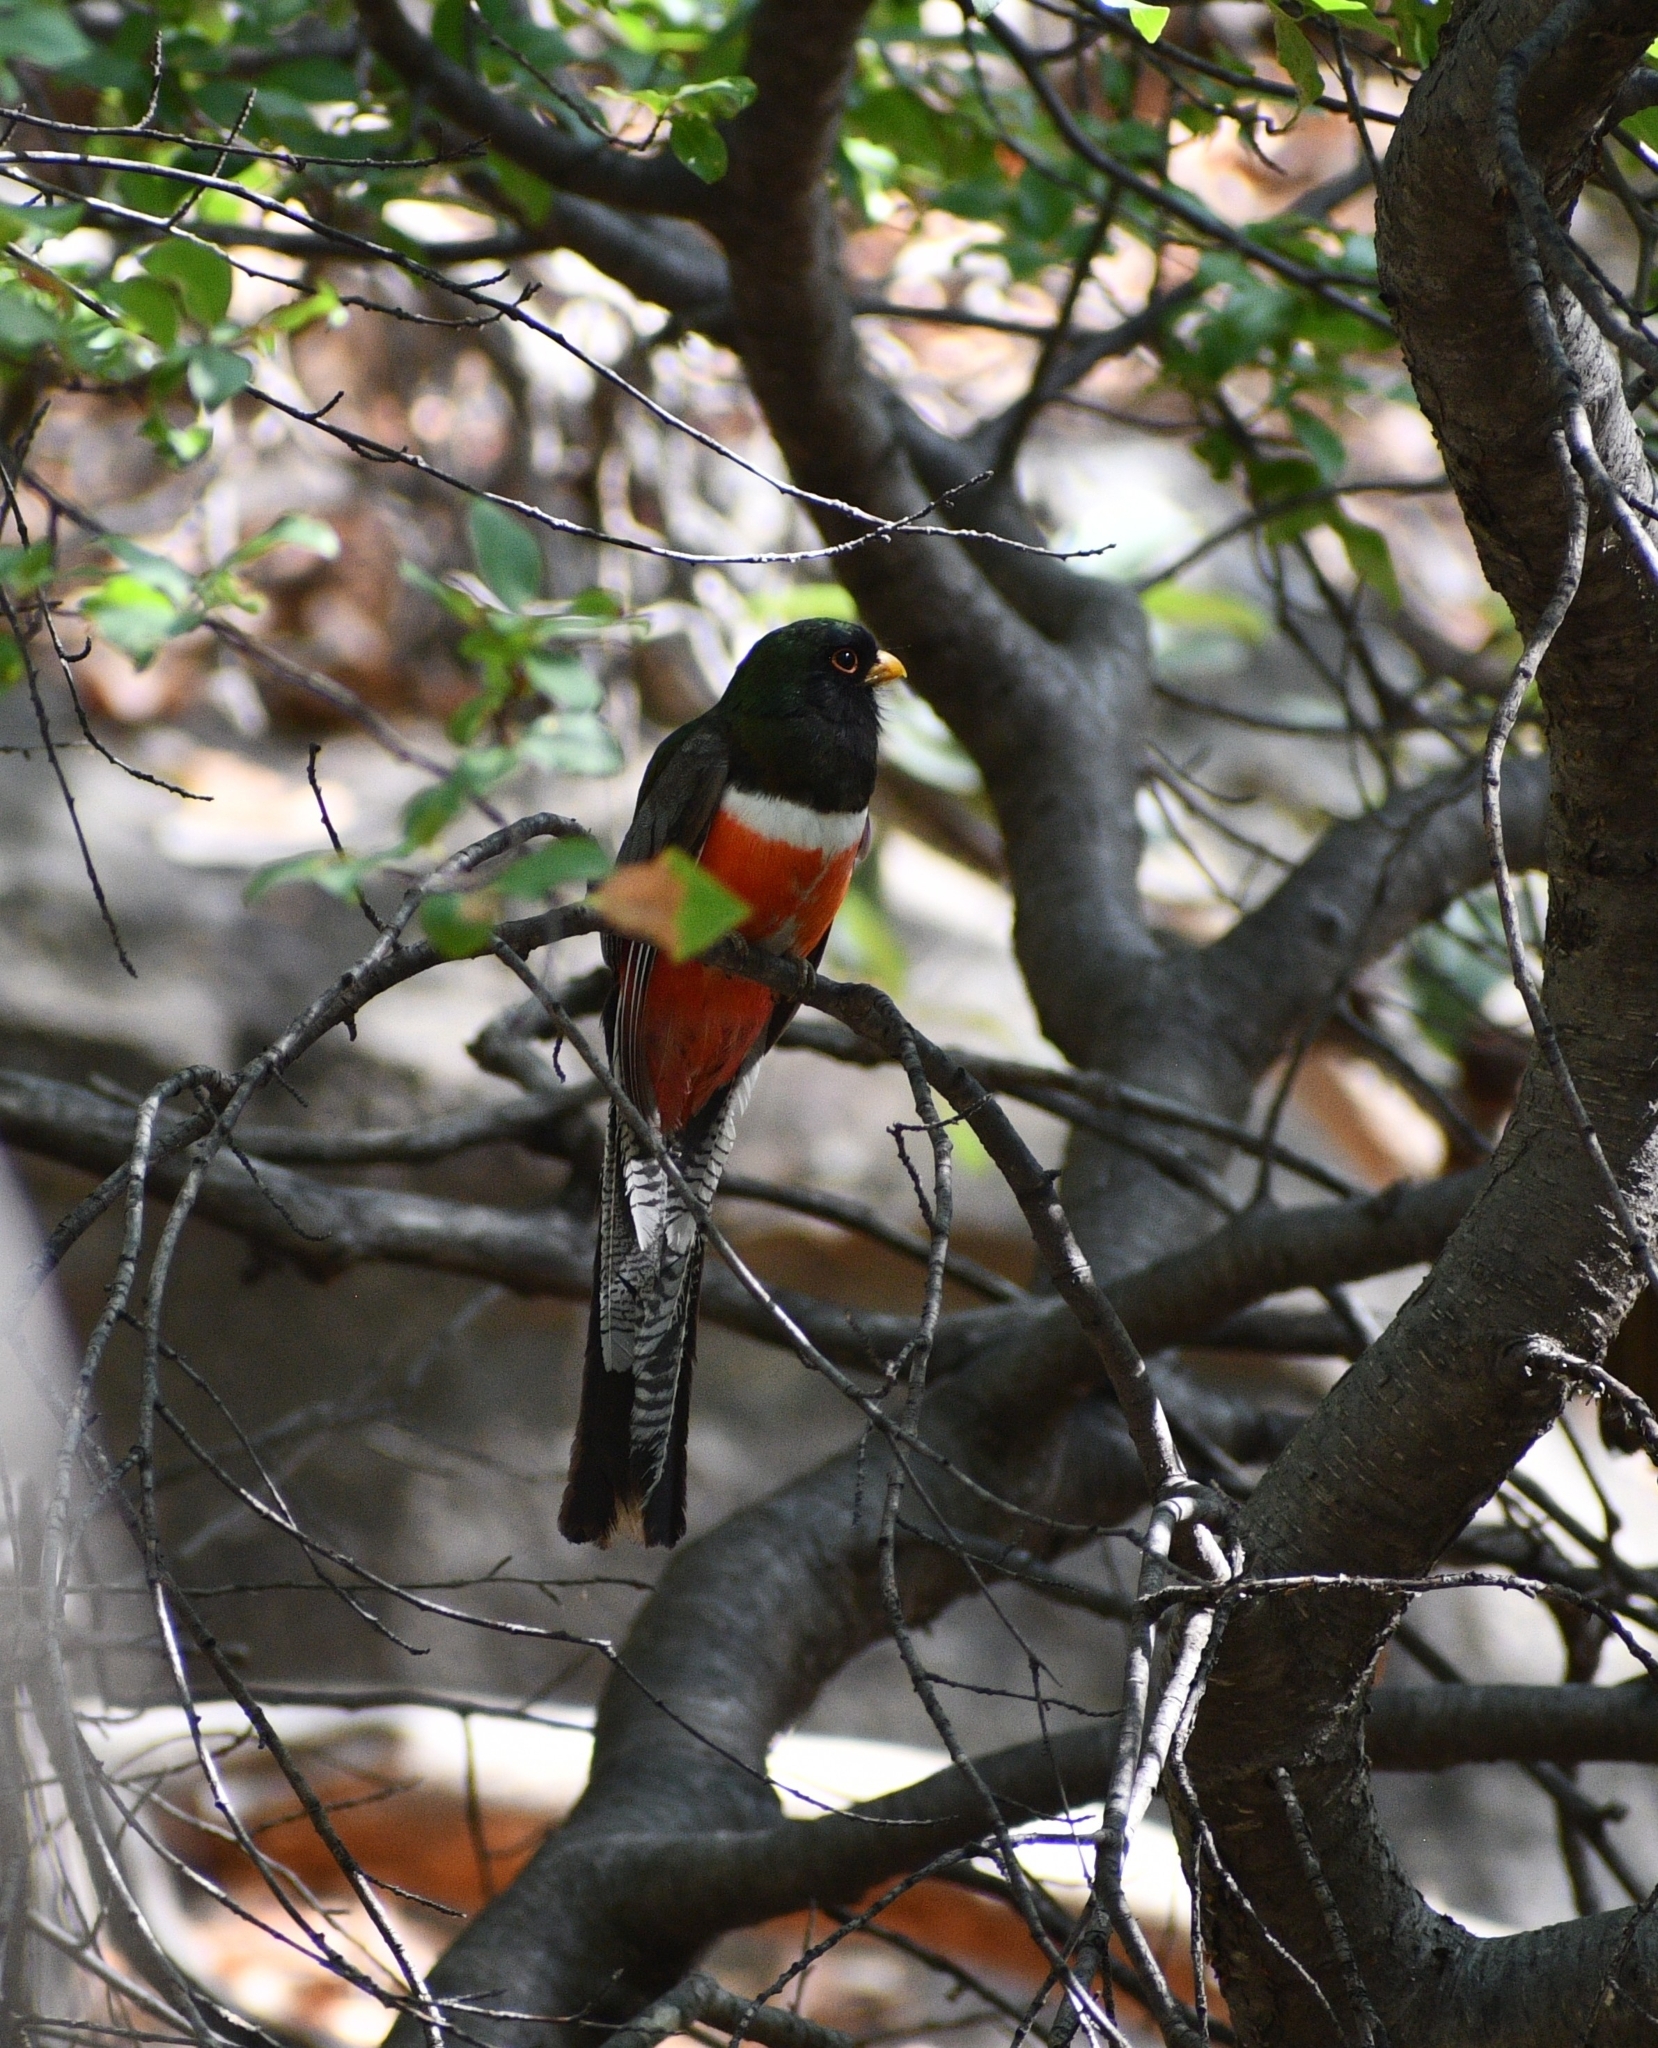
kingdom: Animalia
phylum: Chordata
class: Aves
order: Trogoniformes
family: Trogonidae
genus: Trogon
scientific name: Trogon elegans
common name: Elegant trogon
